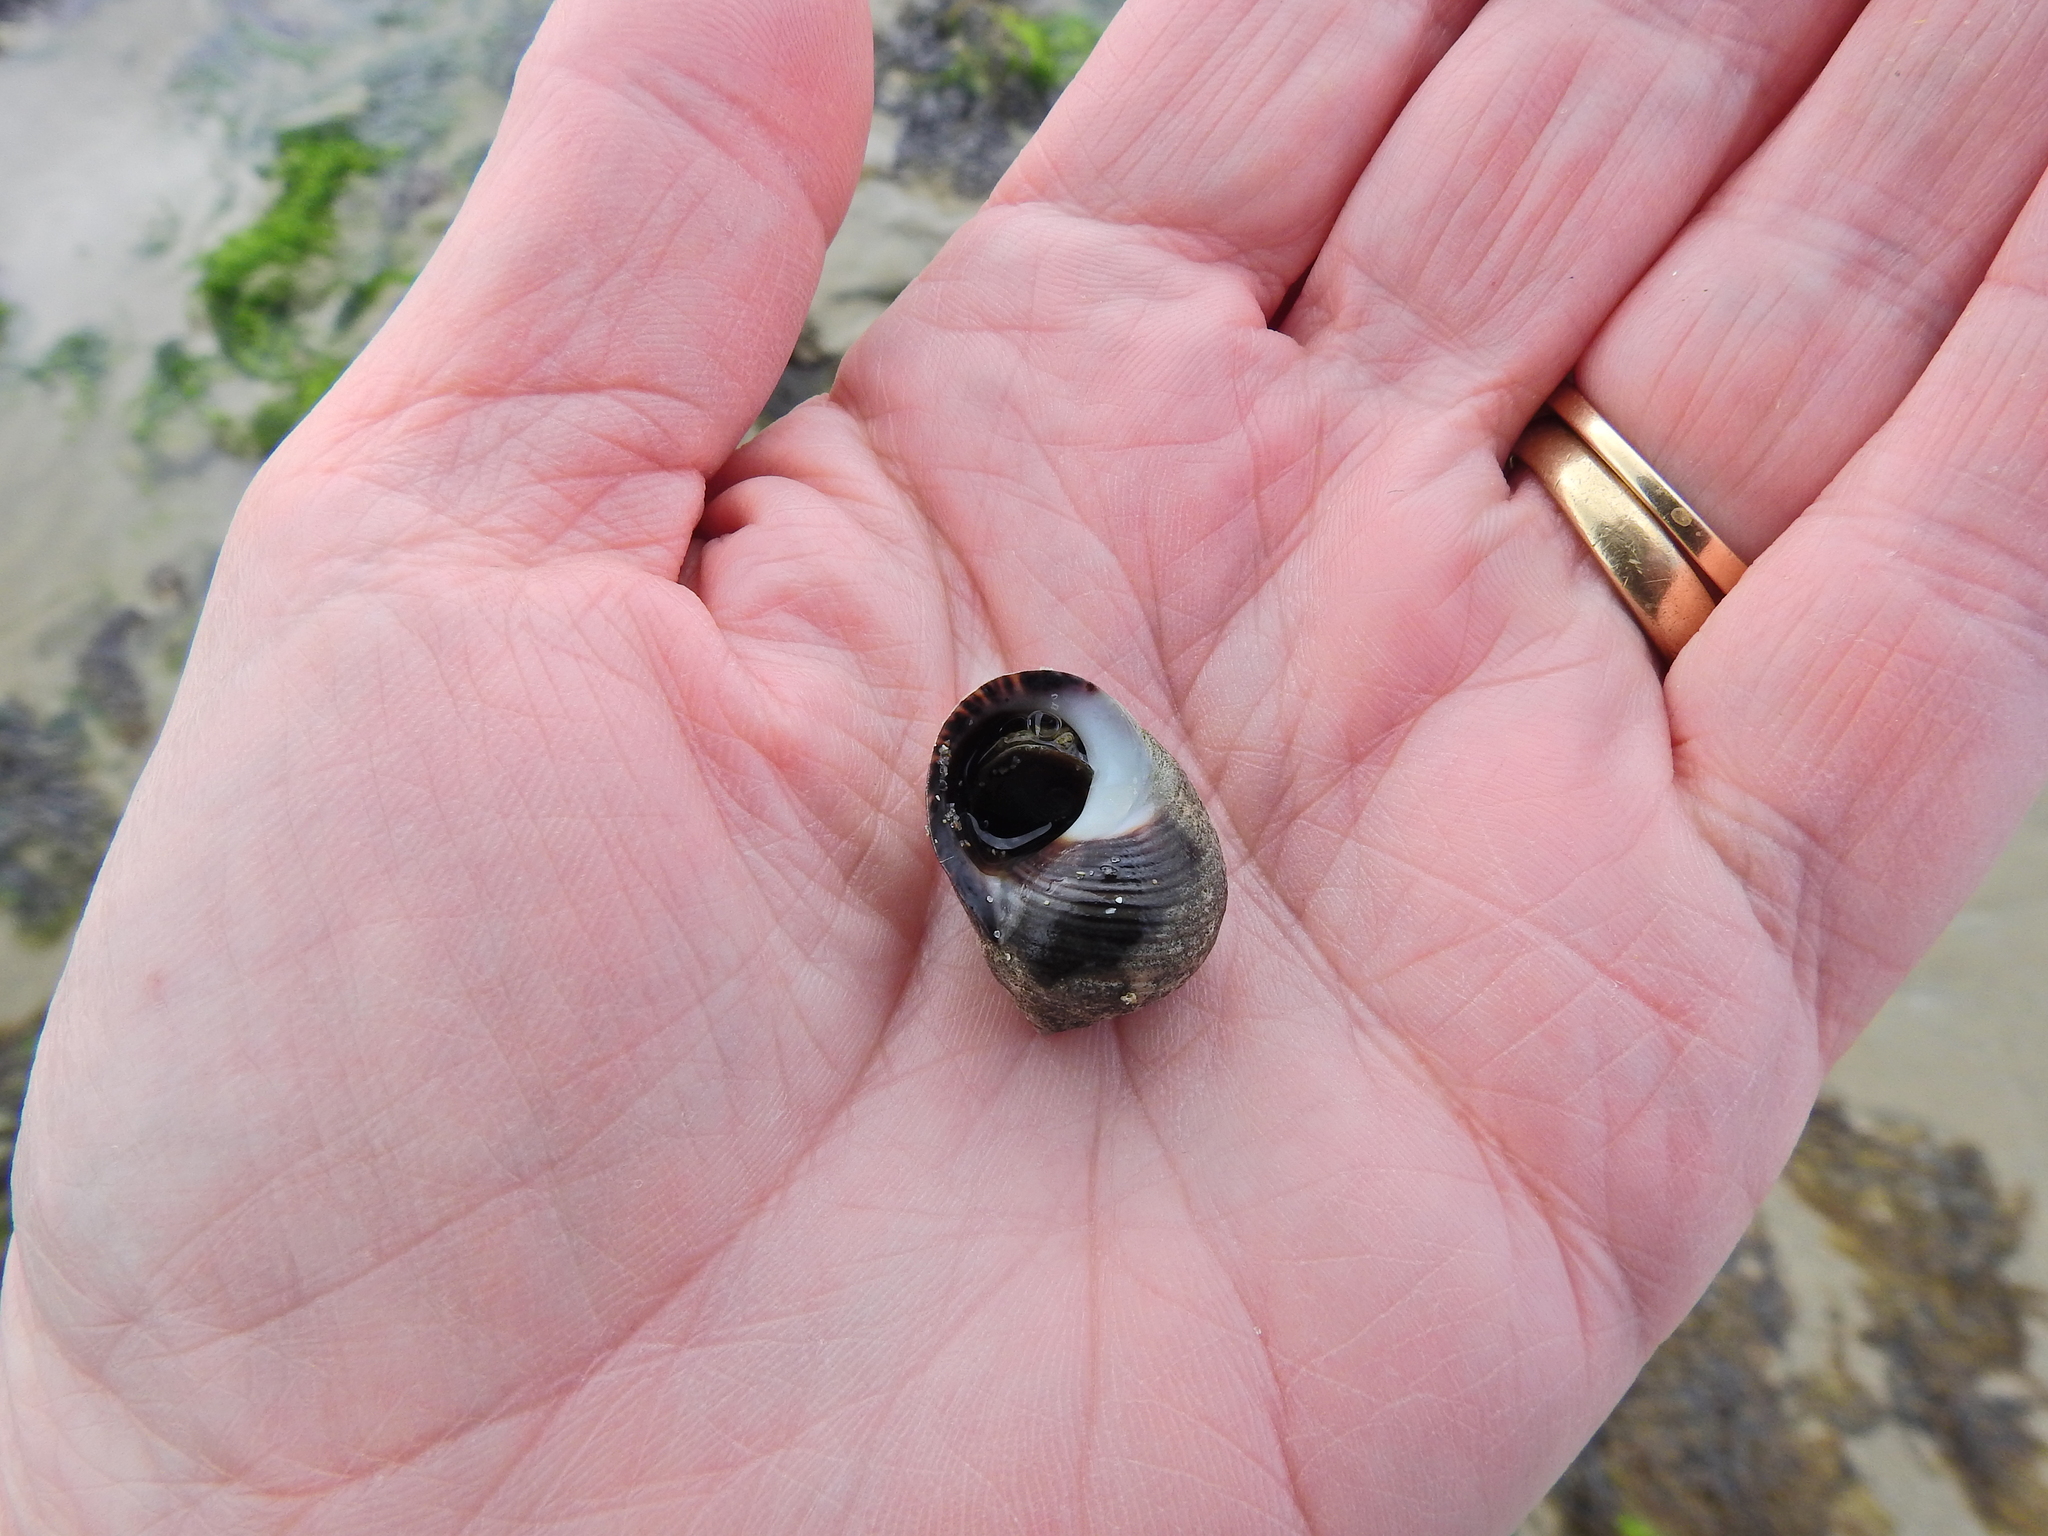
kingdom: Animalia
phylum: Mollusca
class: Gastropoda
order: Littorinimorpha
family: Littorinidae
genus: Littorina
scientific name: Littorina littorea
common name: Common periwinkle
